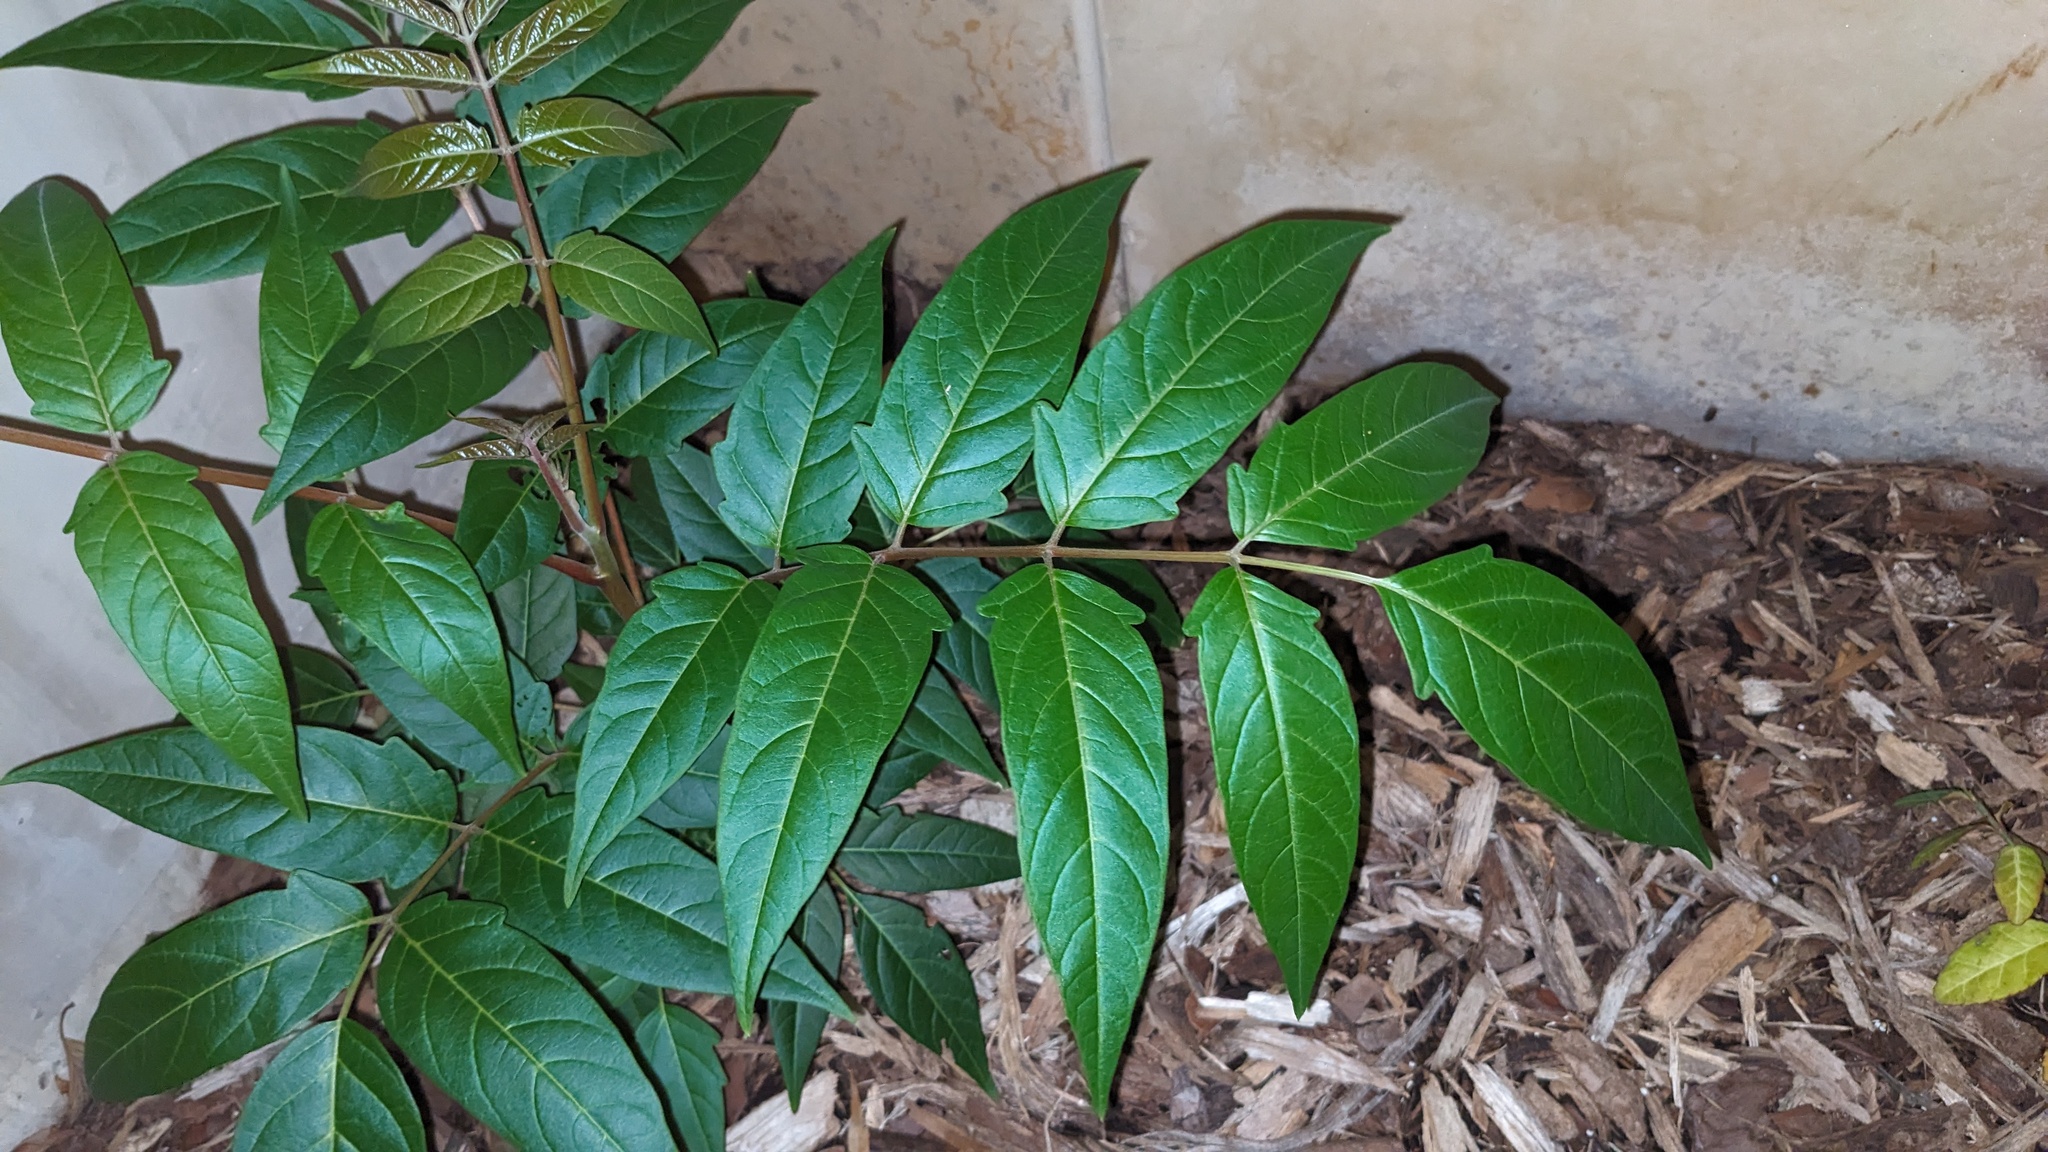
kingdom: Plantae
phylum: Tracheophyta
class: Magnoliopsida
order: Sapindales
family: Simaroubaceae
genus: Ailanthus
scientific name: Ailanthus altissima
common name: Tree-of-heaven
